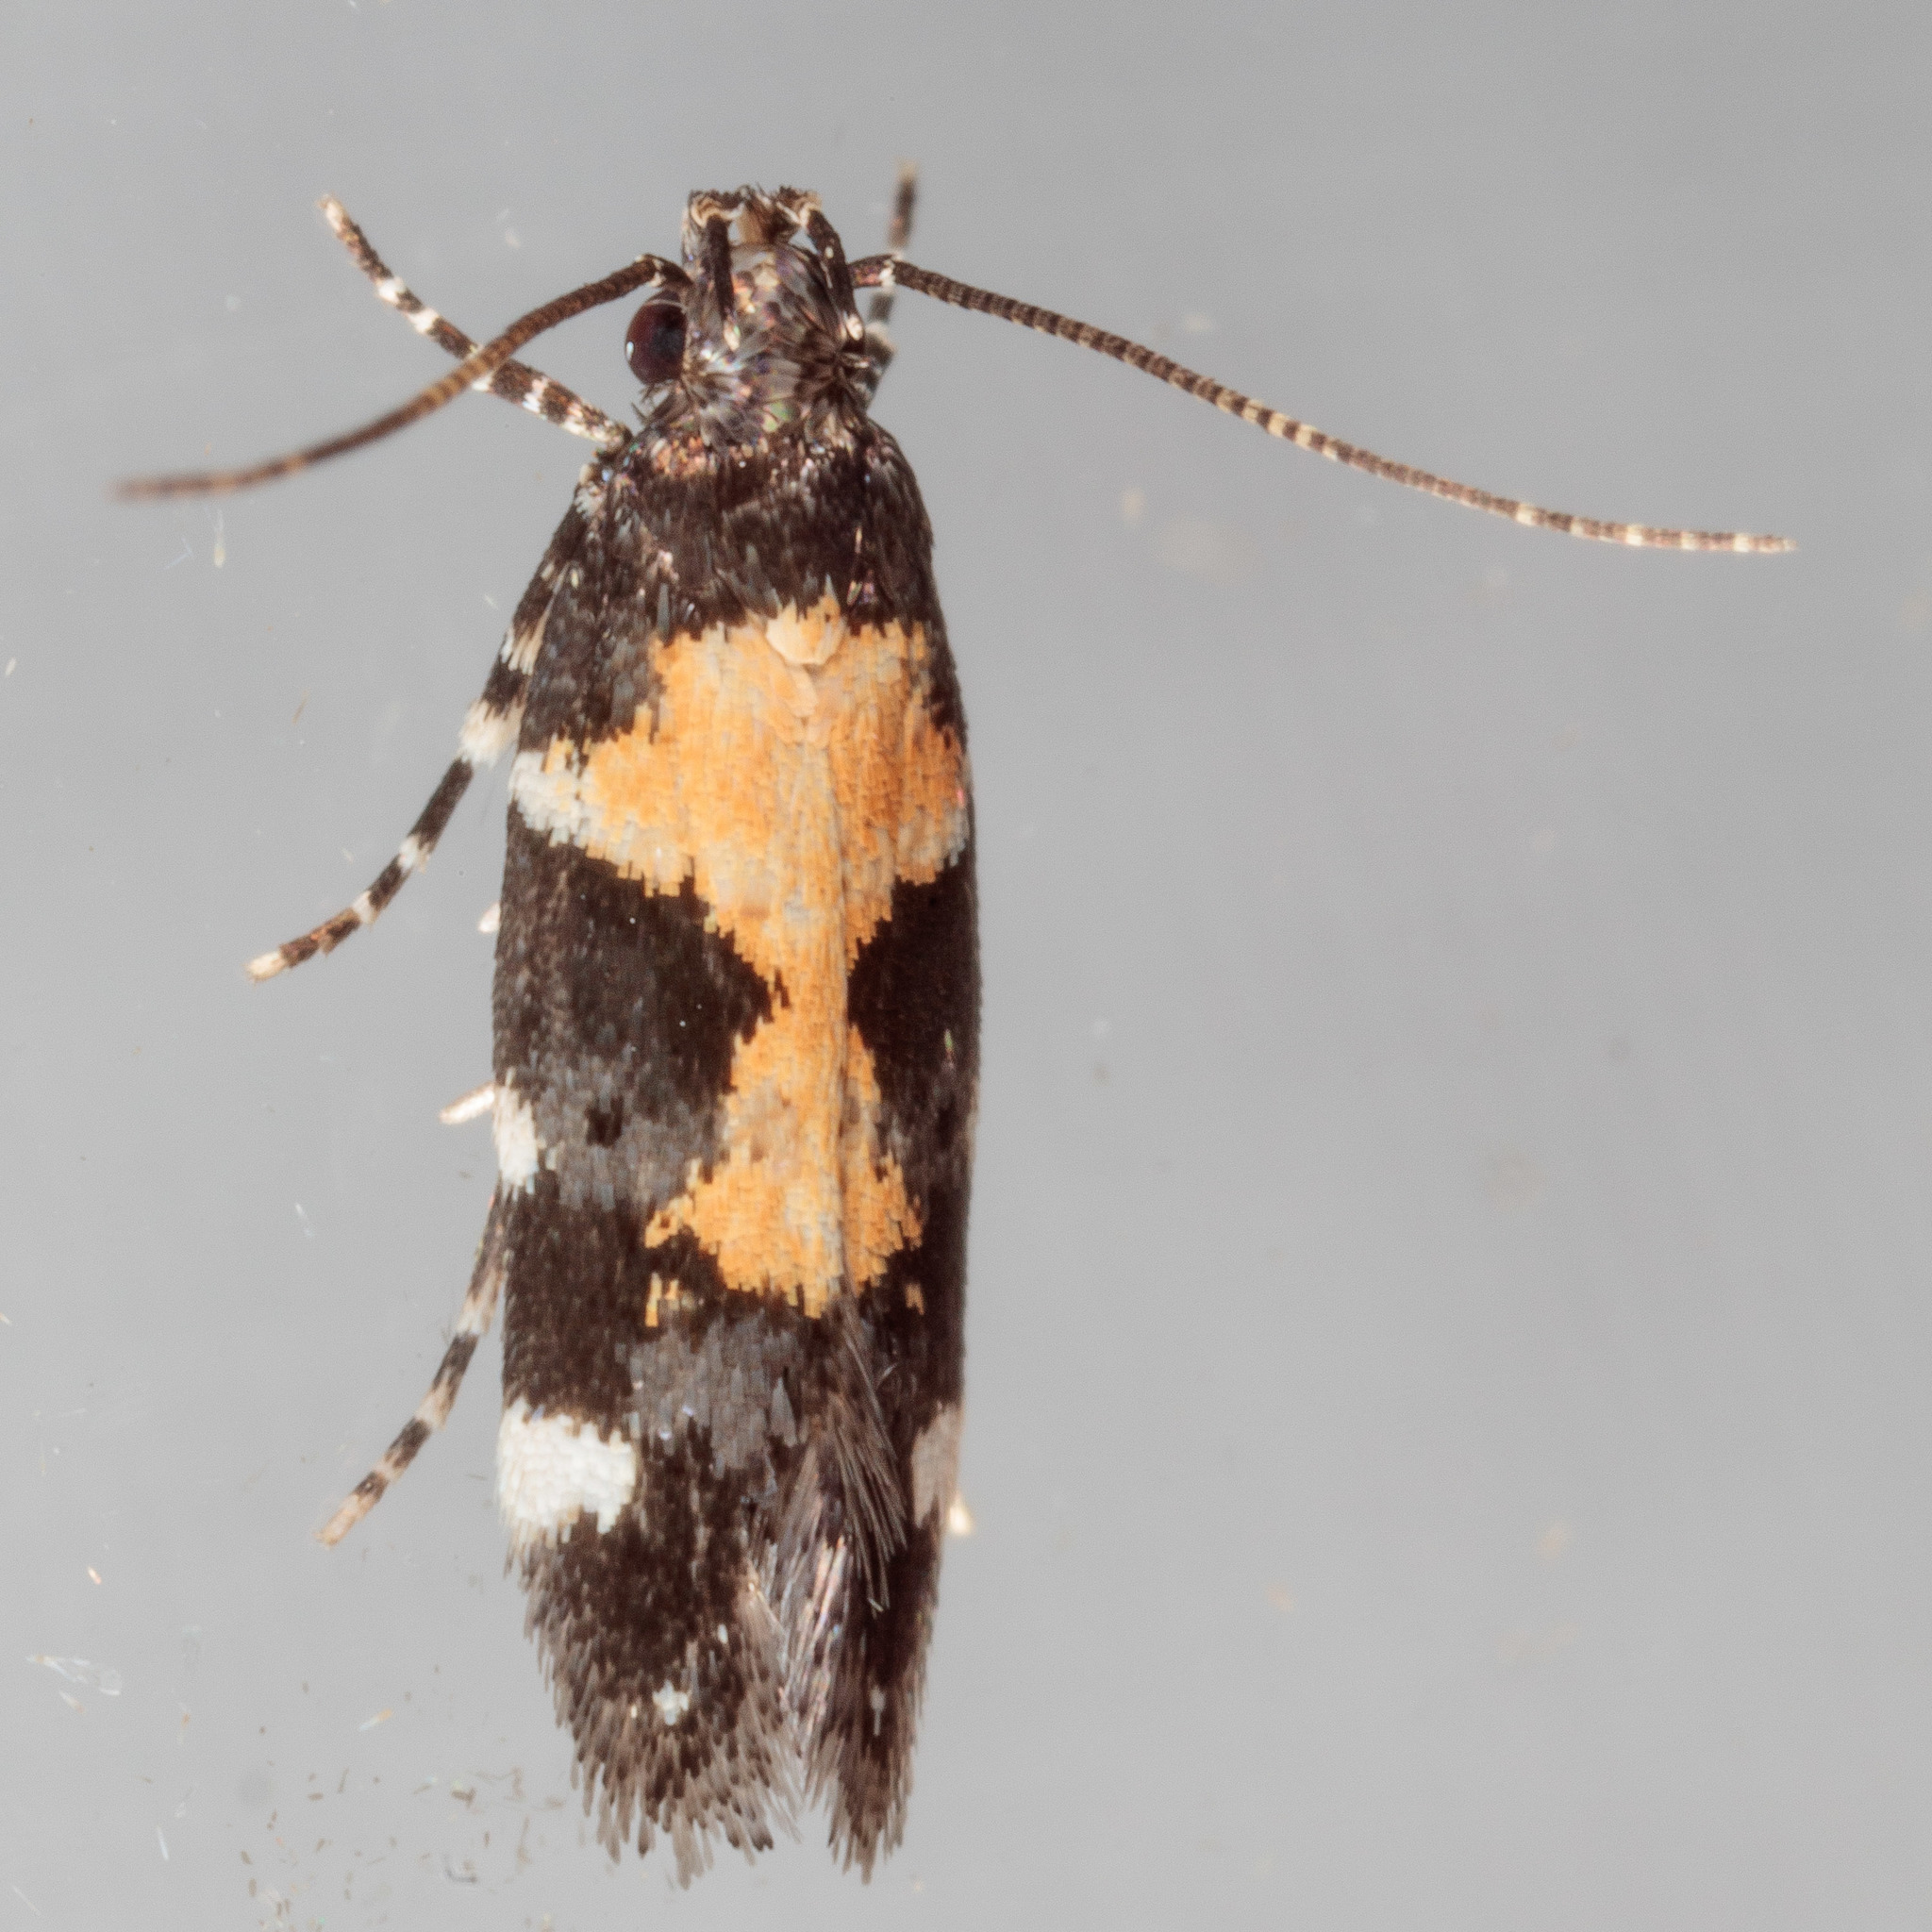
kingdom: Animalia
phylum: Arthropoda
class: Insecta
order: Lepidoptera
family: Gelechiidae
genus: Stegasta
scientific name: Stegasta bosqueella
